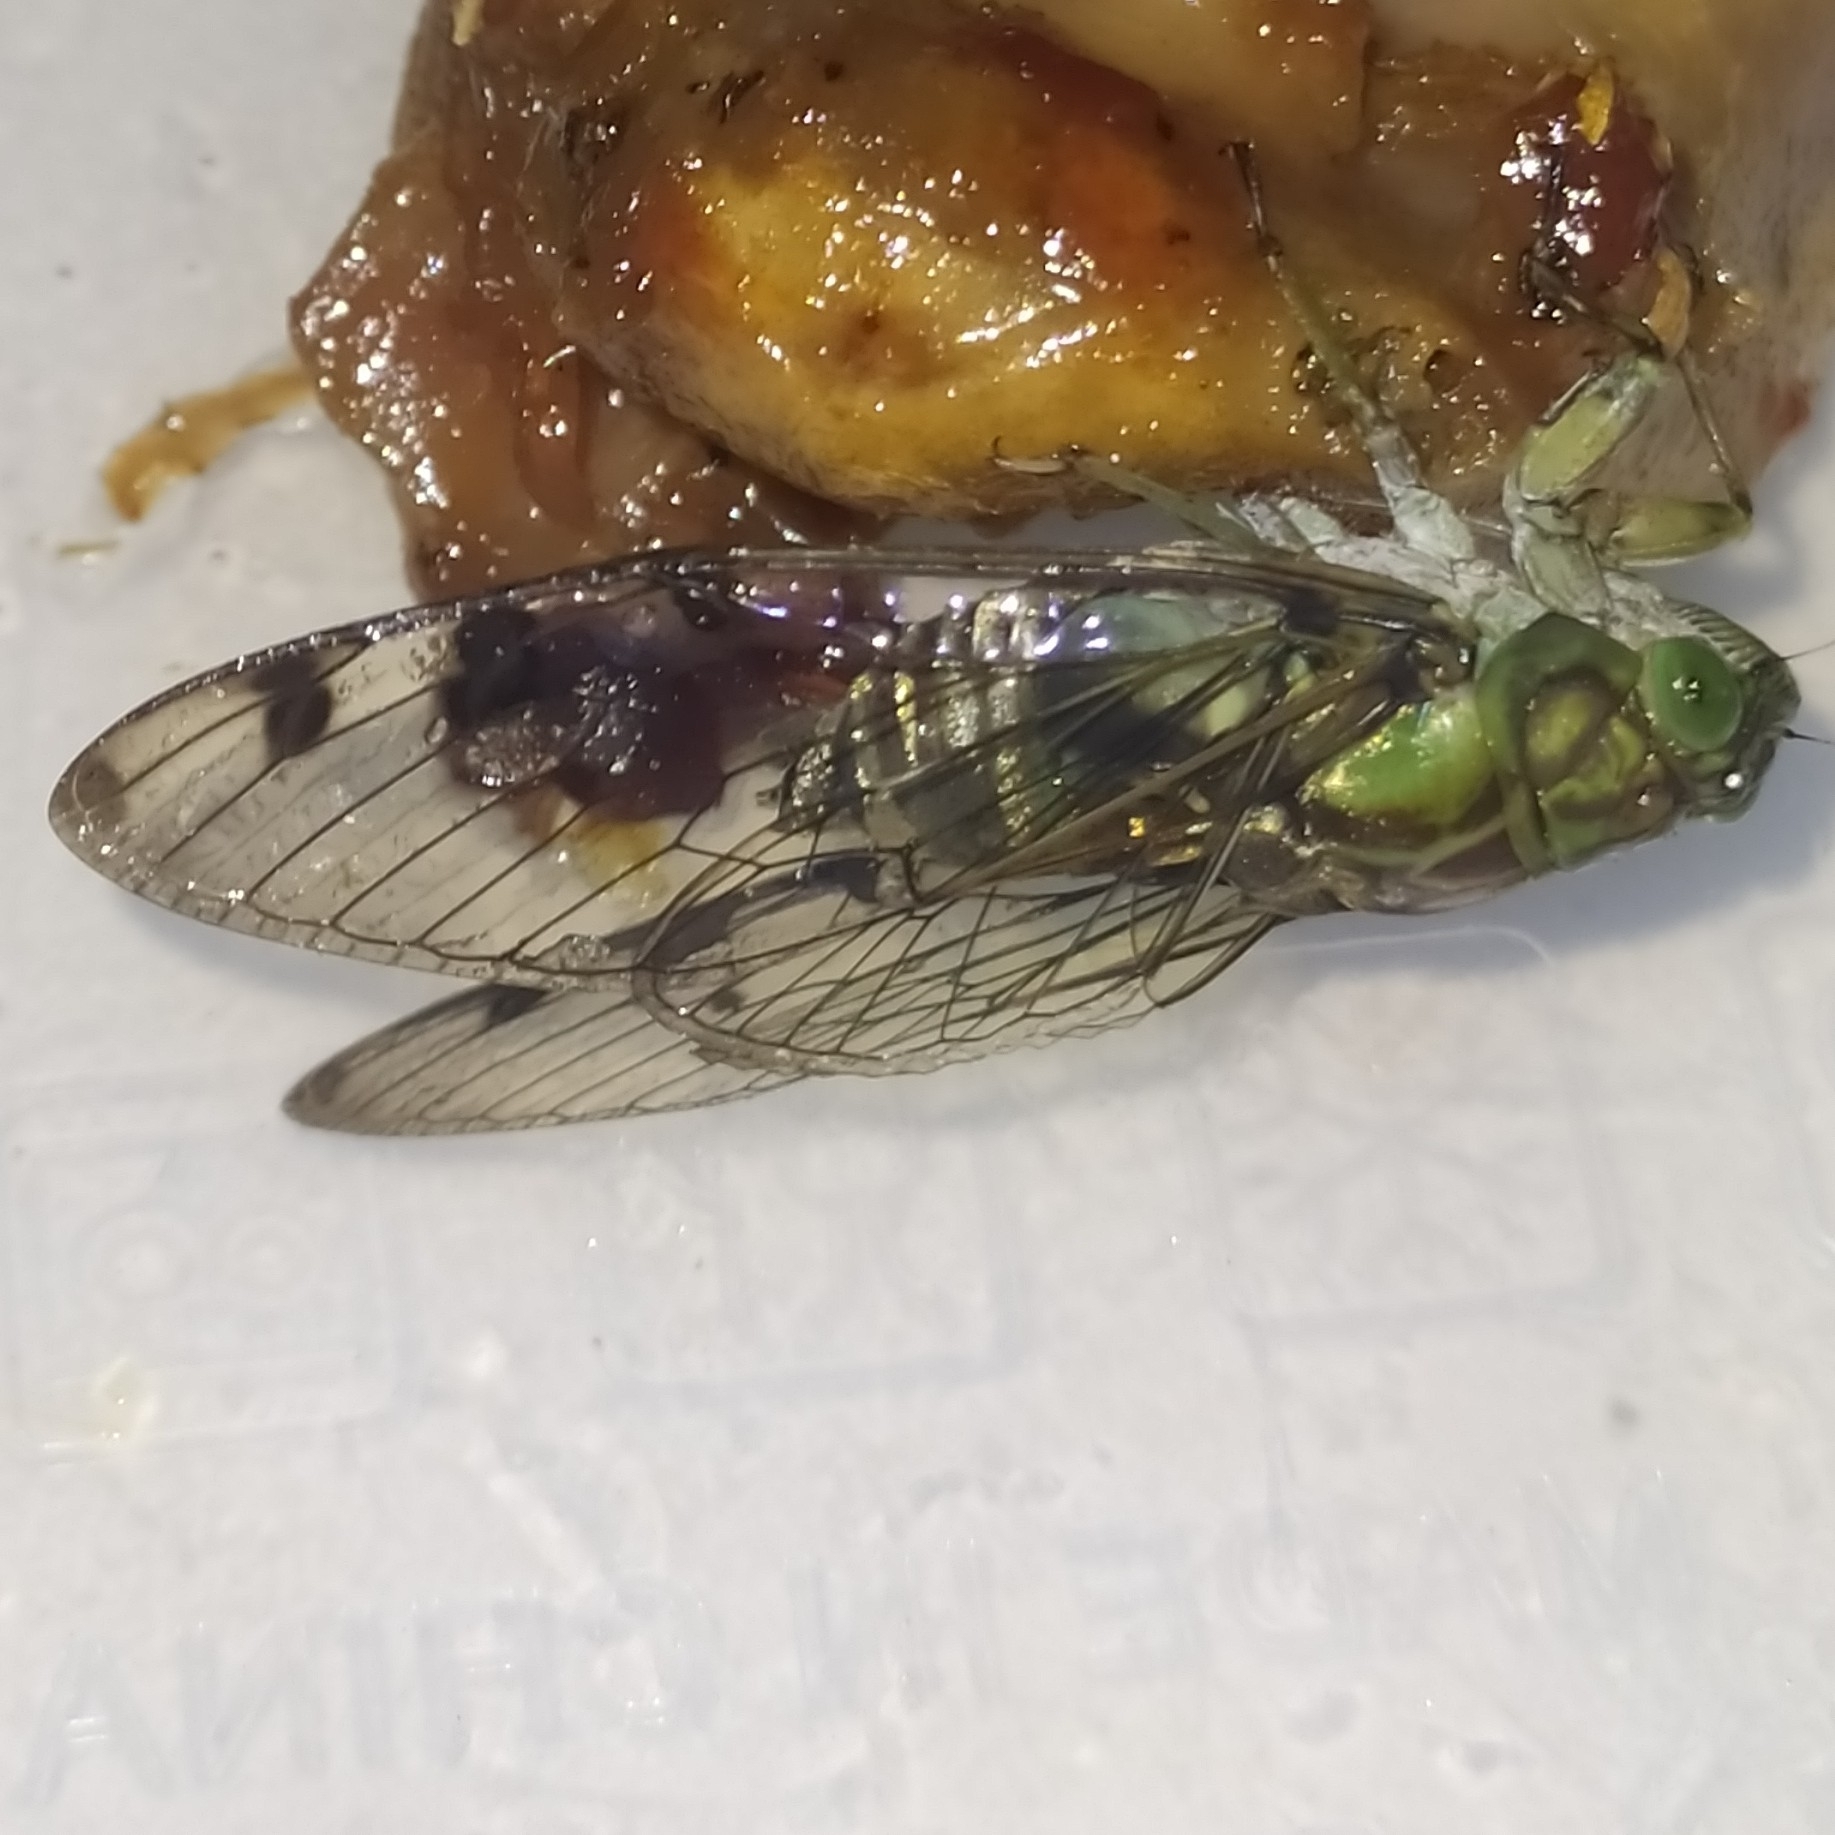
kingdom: Animalia
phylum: Arthropoda
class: Insecta
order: Hemiptera
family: Cicadidae
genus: Zammara
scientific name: Zammara guyanensis
